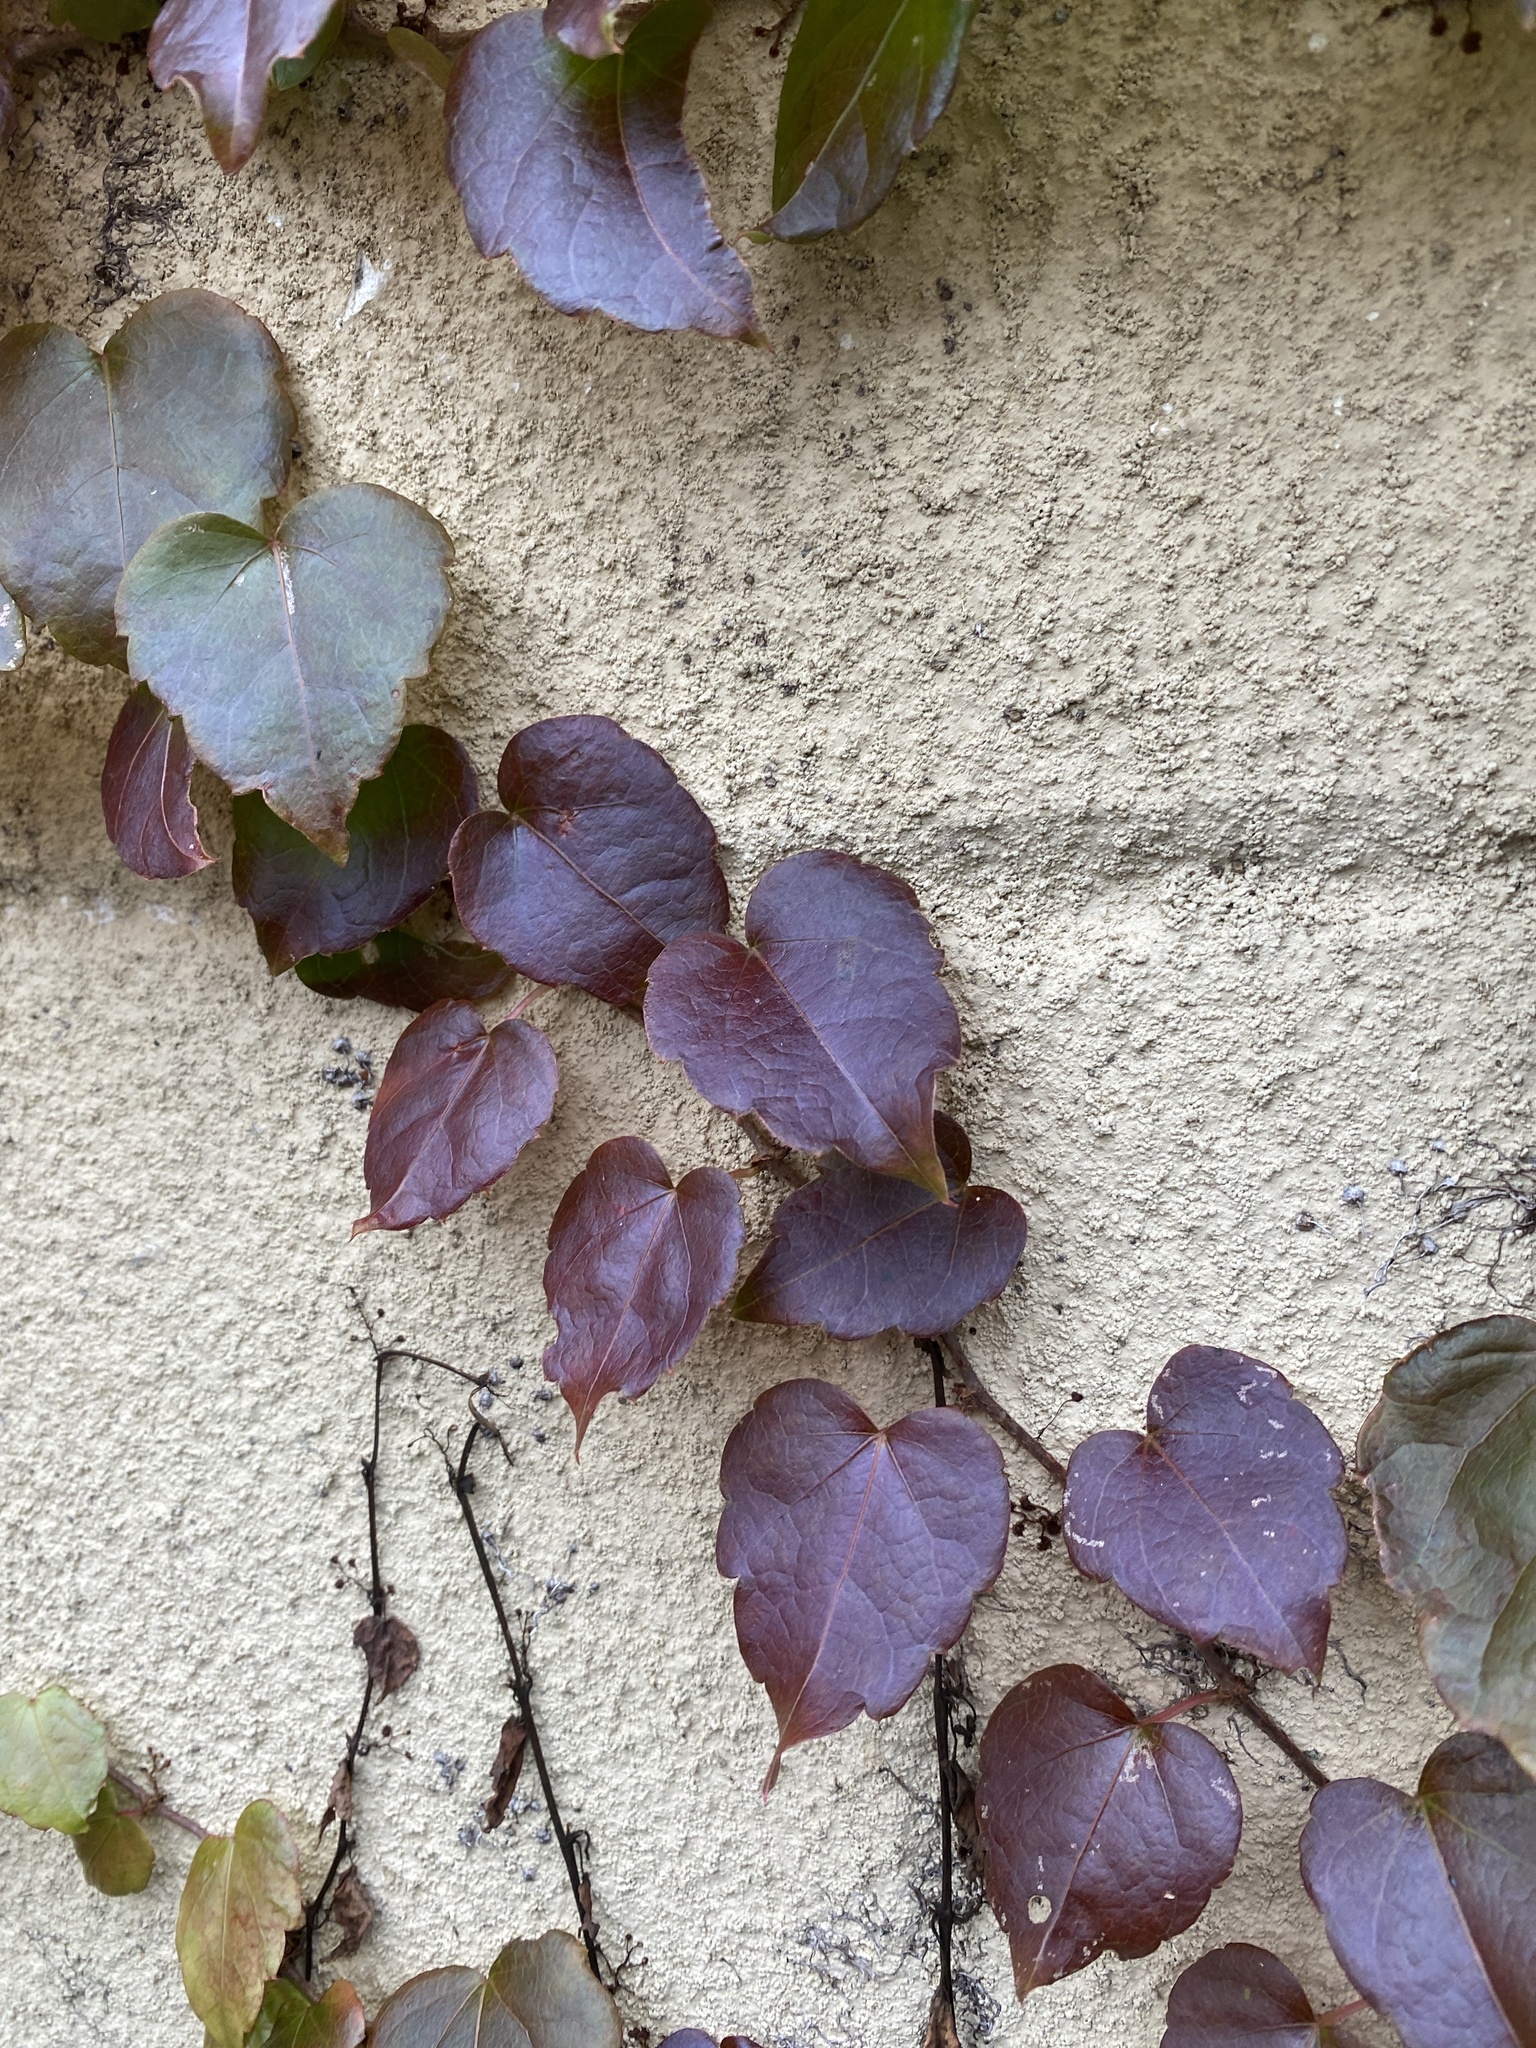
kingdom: Plantae
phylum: Tracheophyta
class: Magnoliopsida
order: Vitales
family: Vitaceae
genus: Parthenocissus
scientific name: Parthenocissus tricuspidata
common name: Boston ivy
